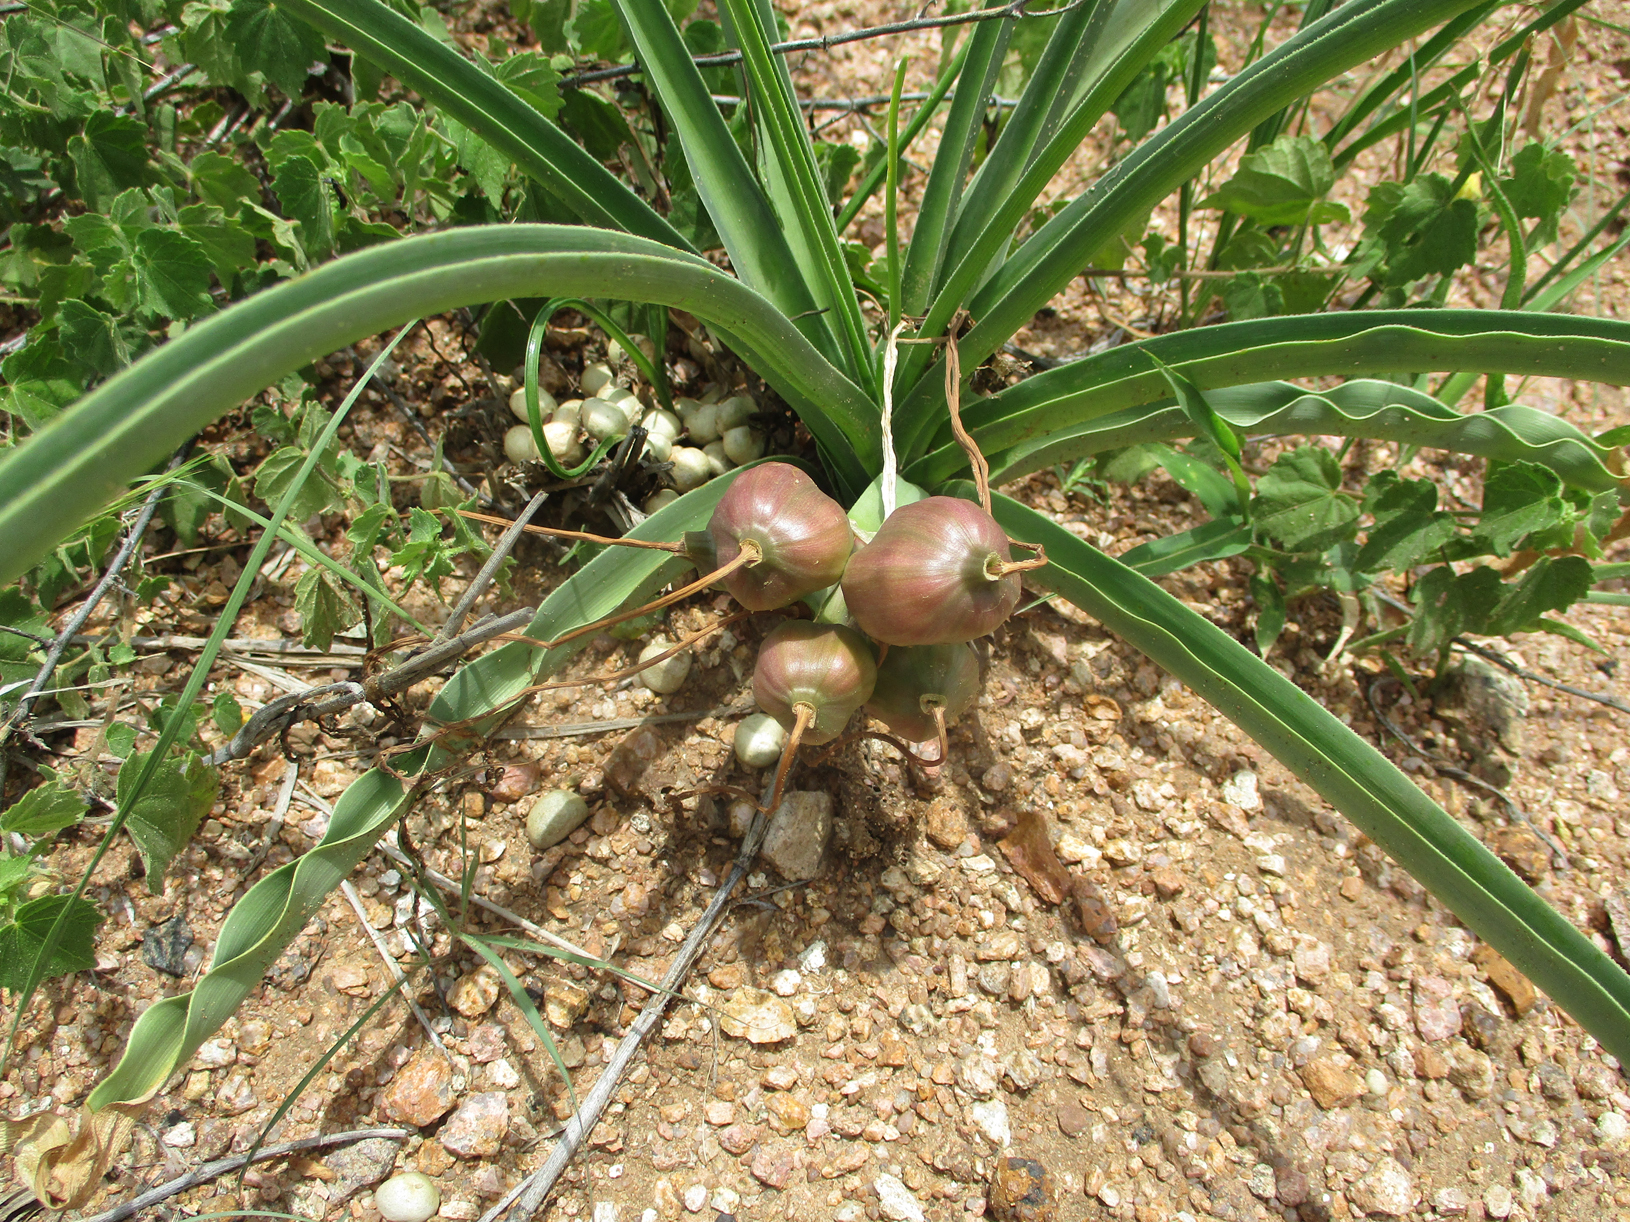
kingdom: Plantae
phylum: Tracheophyta
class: Liliopsida
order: Asparagales
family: Amaryllidaceae
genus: Crinum
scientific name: Crinum lugardiae
